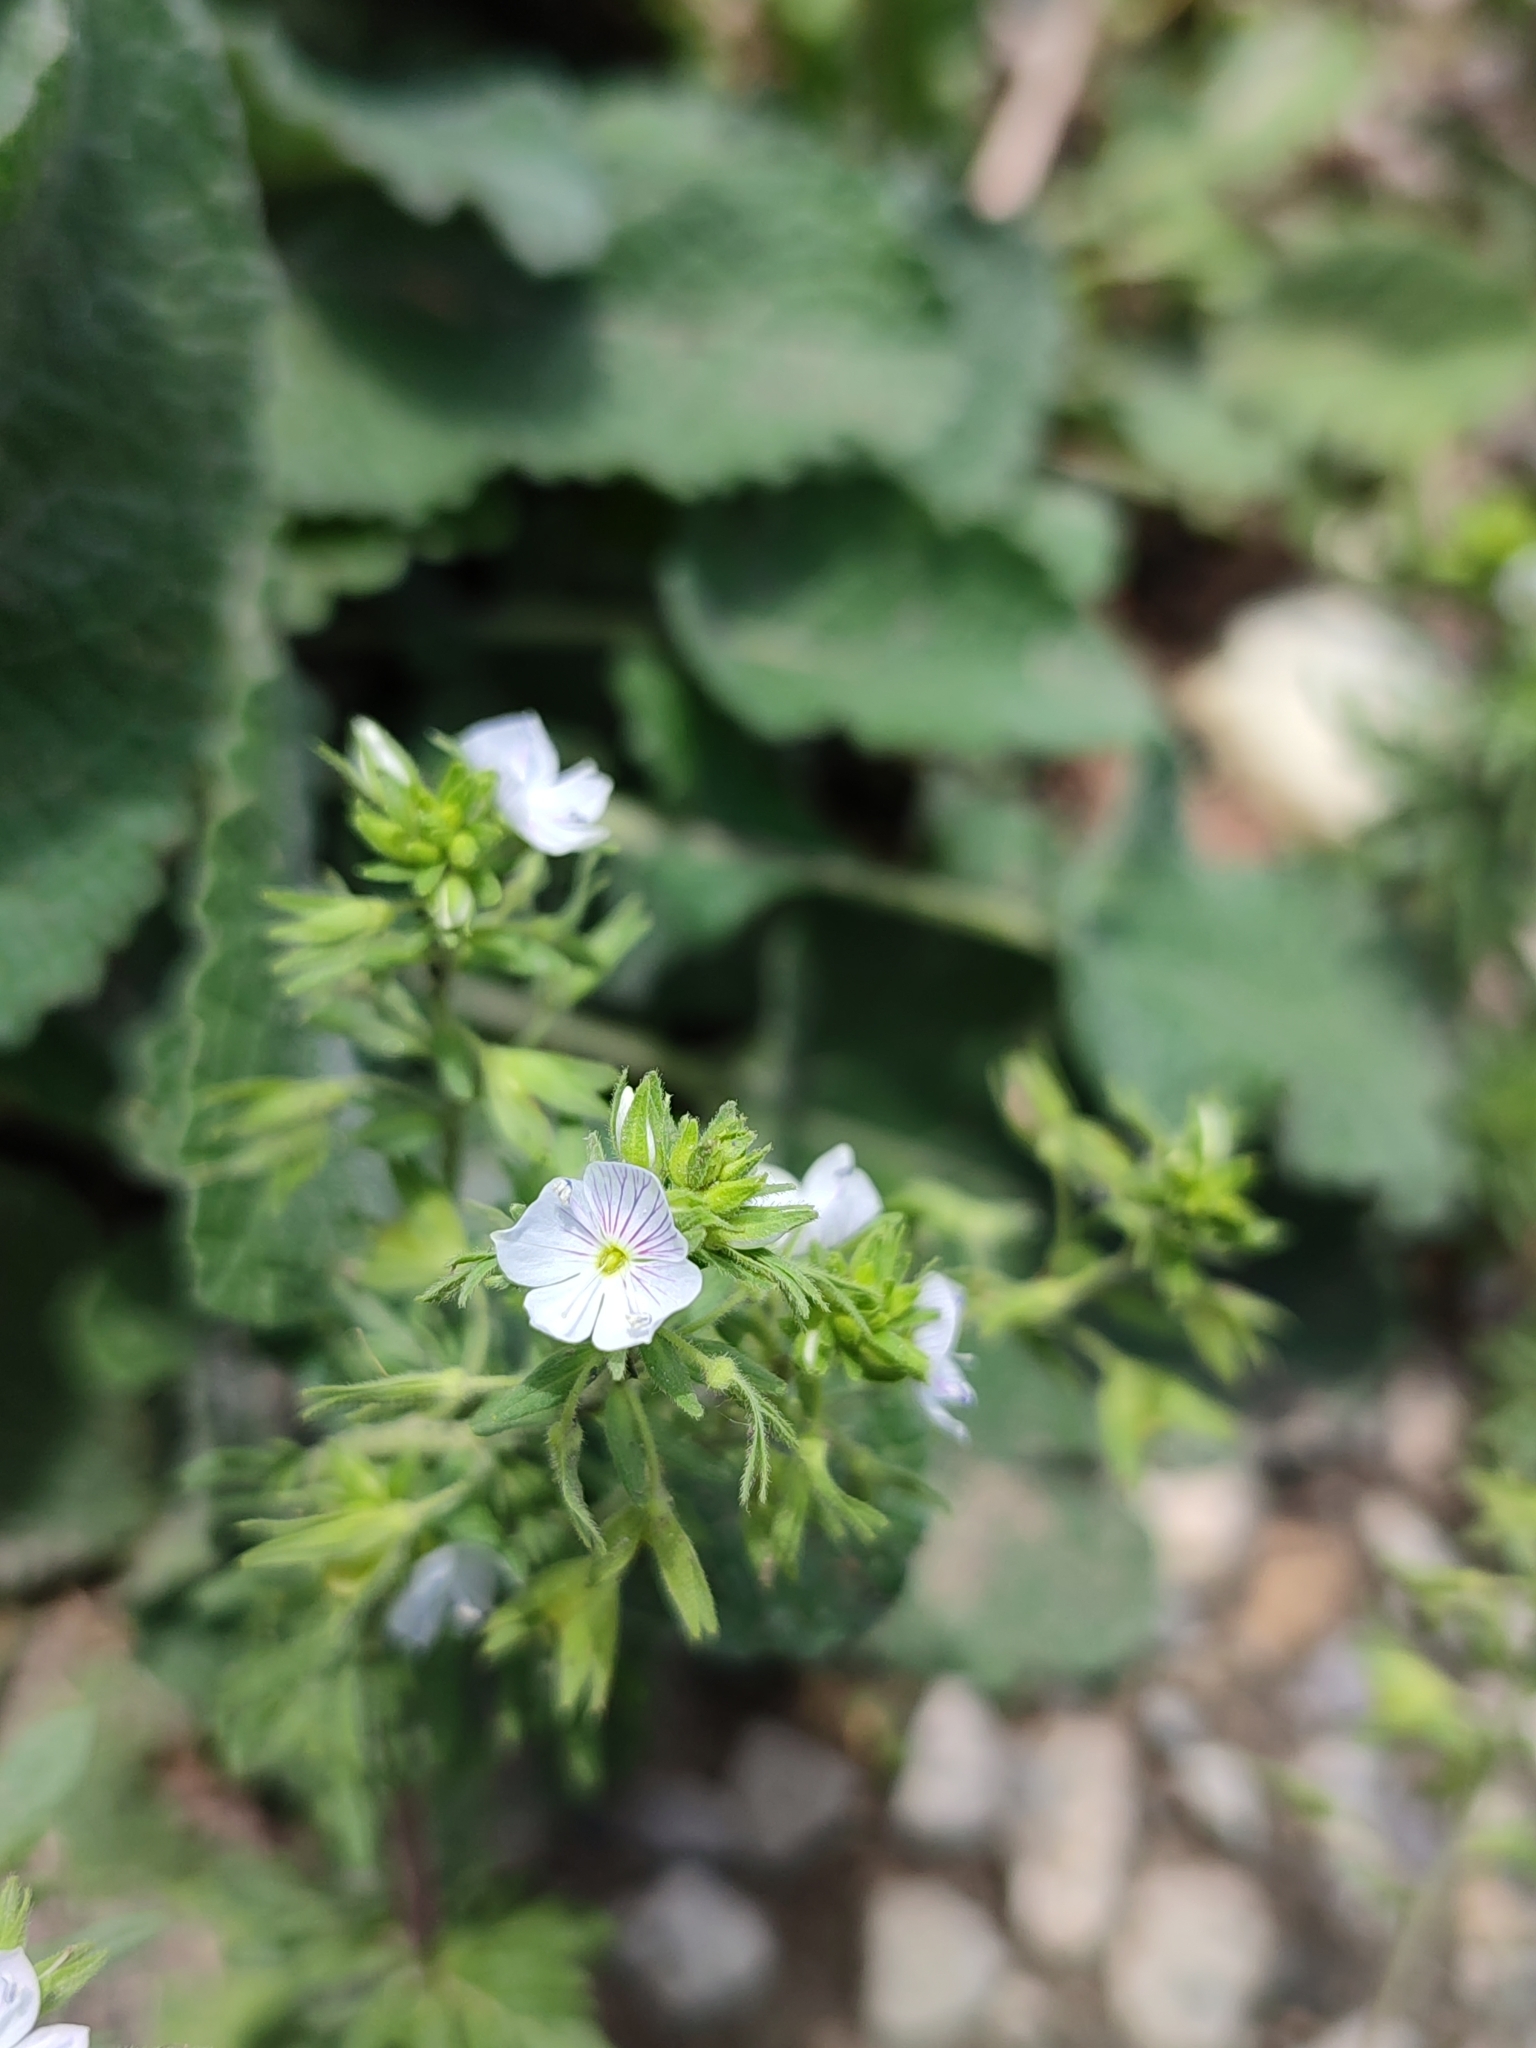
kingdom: Plantae
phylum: Tracheophyta
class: Magnoliopsida
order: Lamiales
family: Plantaginaceae
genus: Veronica
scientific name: Veronica caucasica
